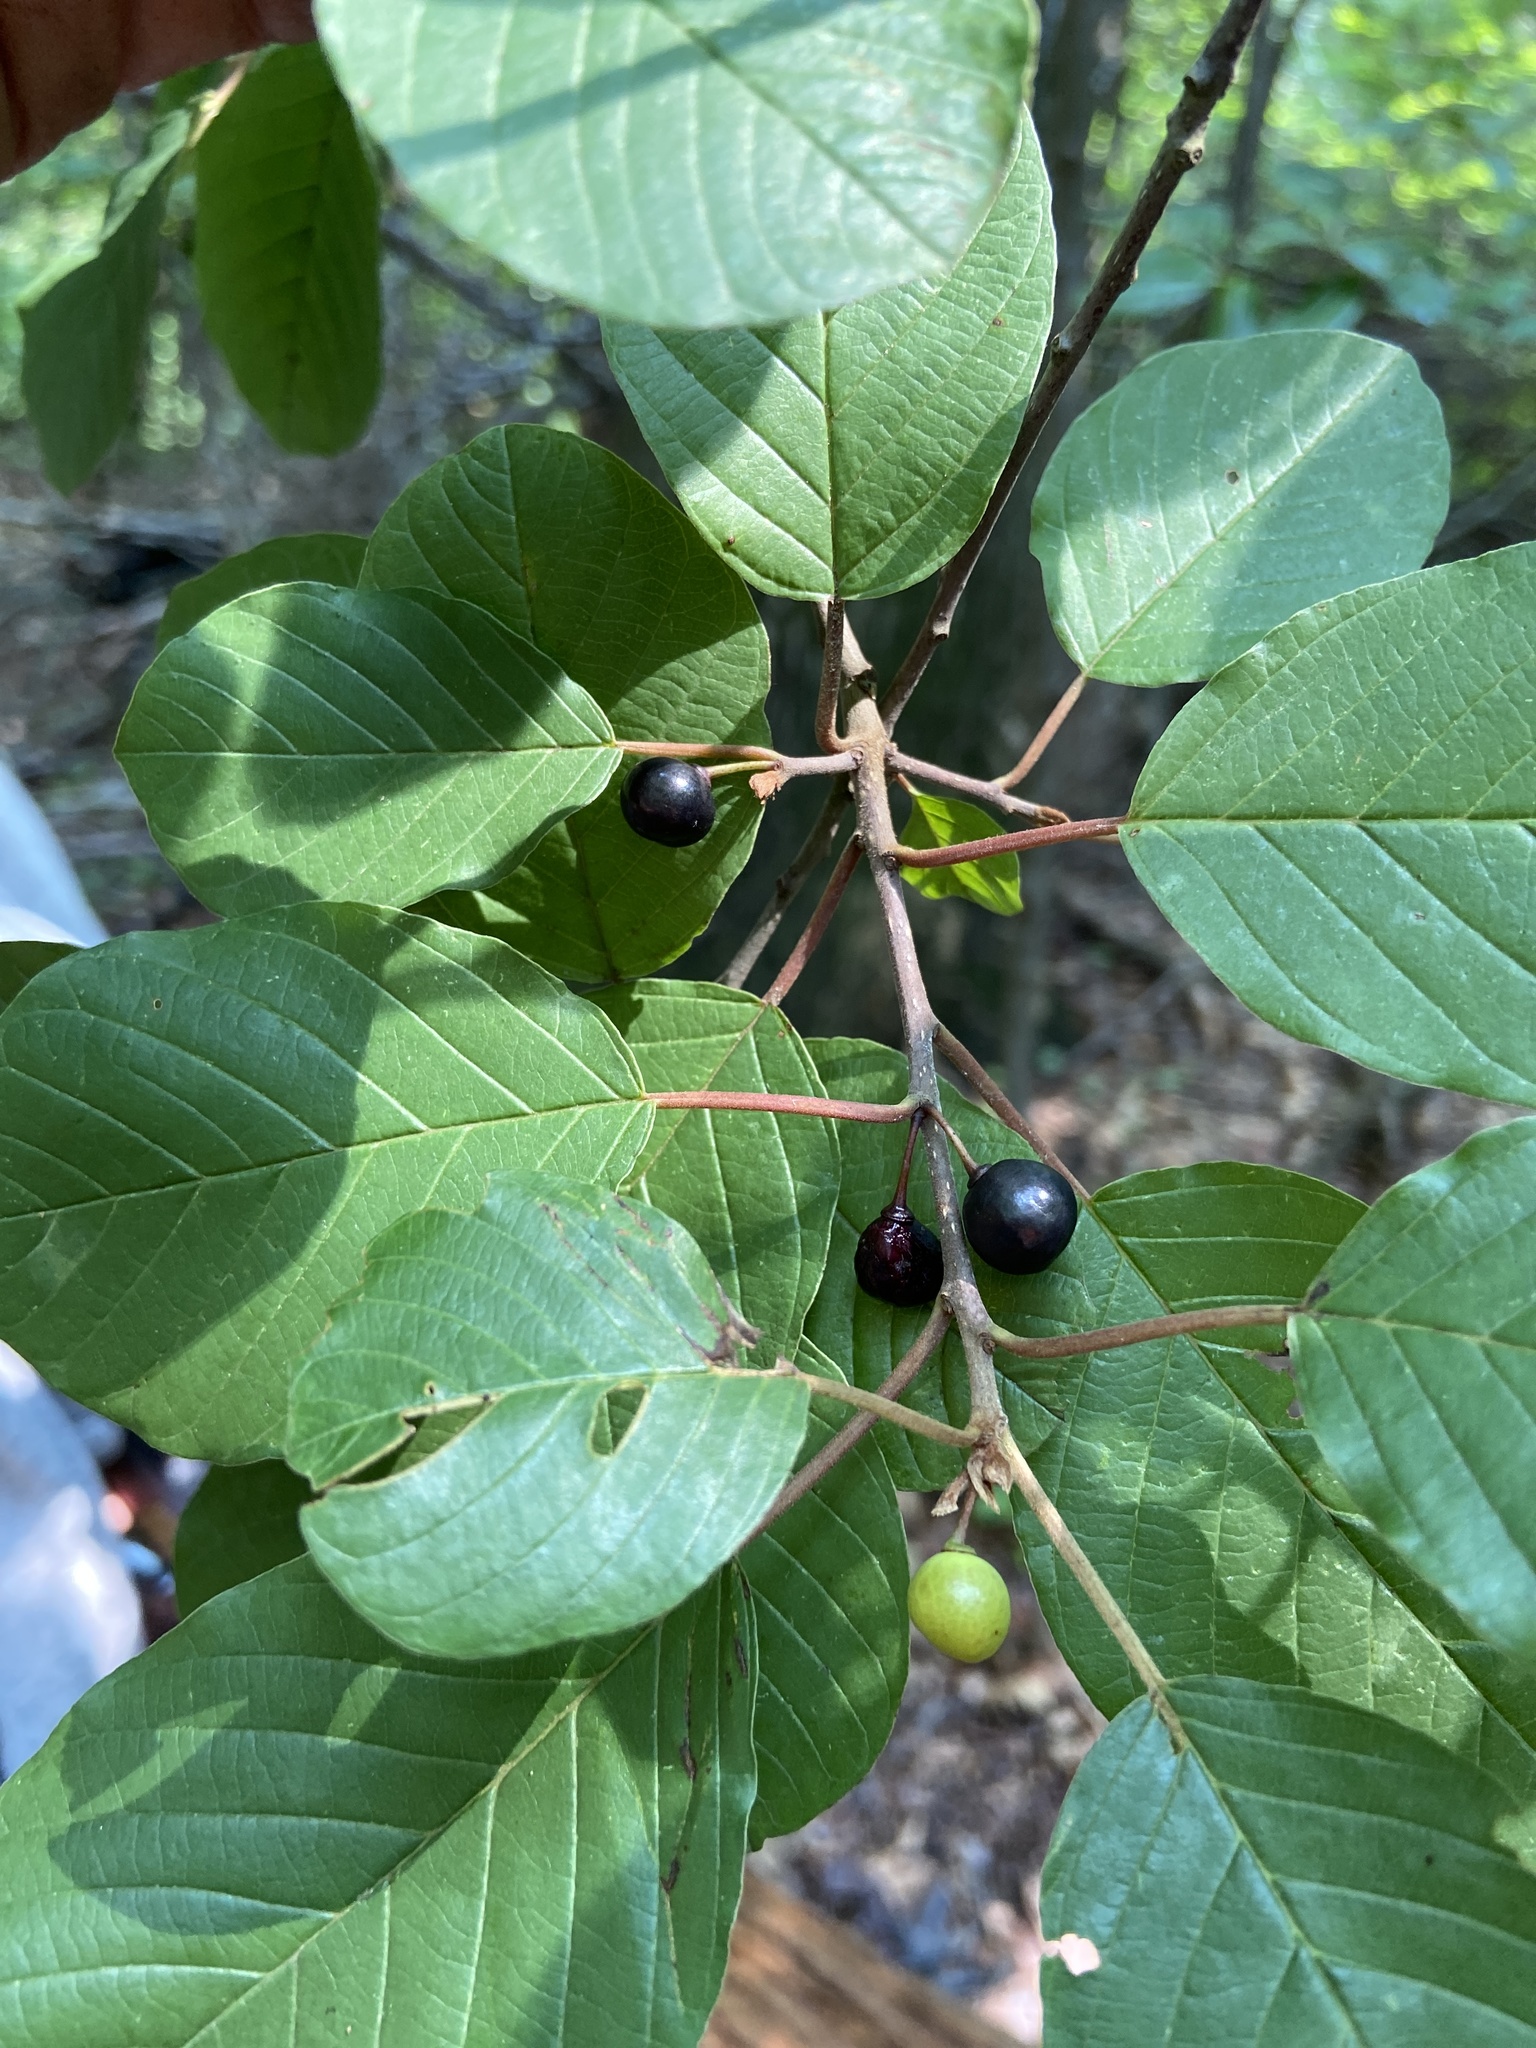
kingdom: Plantae
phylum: Tracheophyta
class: Magnoliopsida
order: Rosales
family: Rhamnaceae
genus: Frangula
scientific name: Frangula alnus
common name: Alder buckthorn
